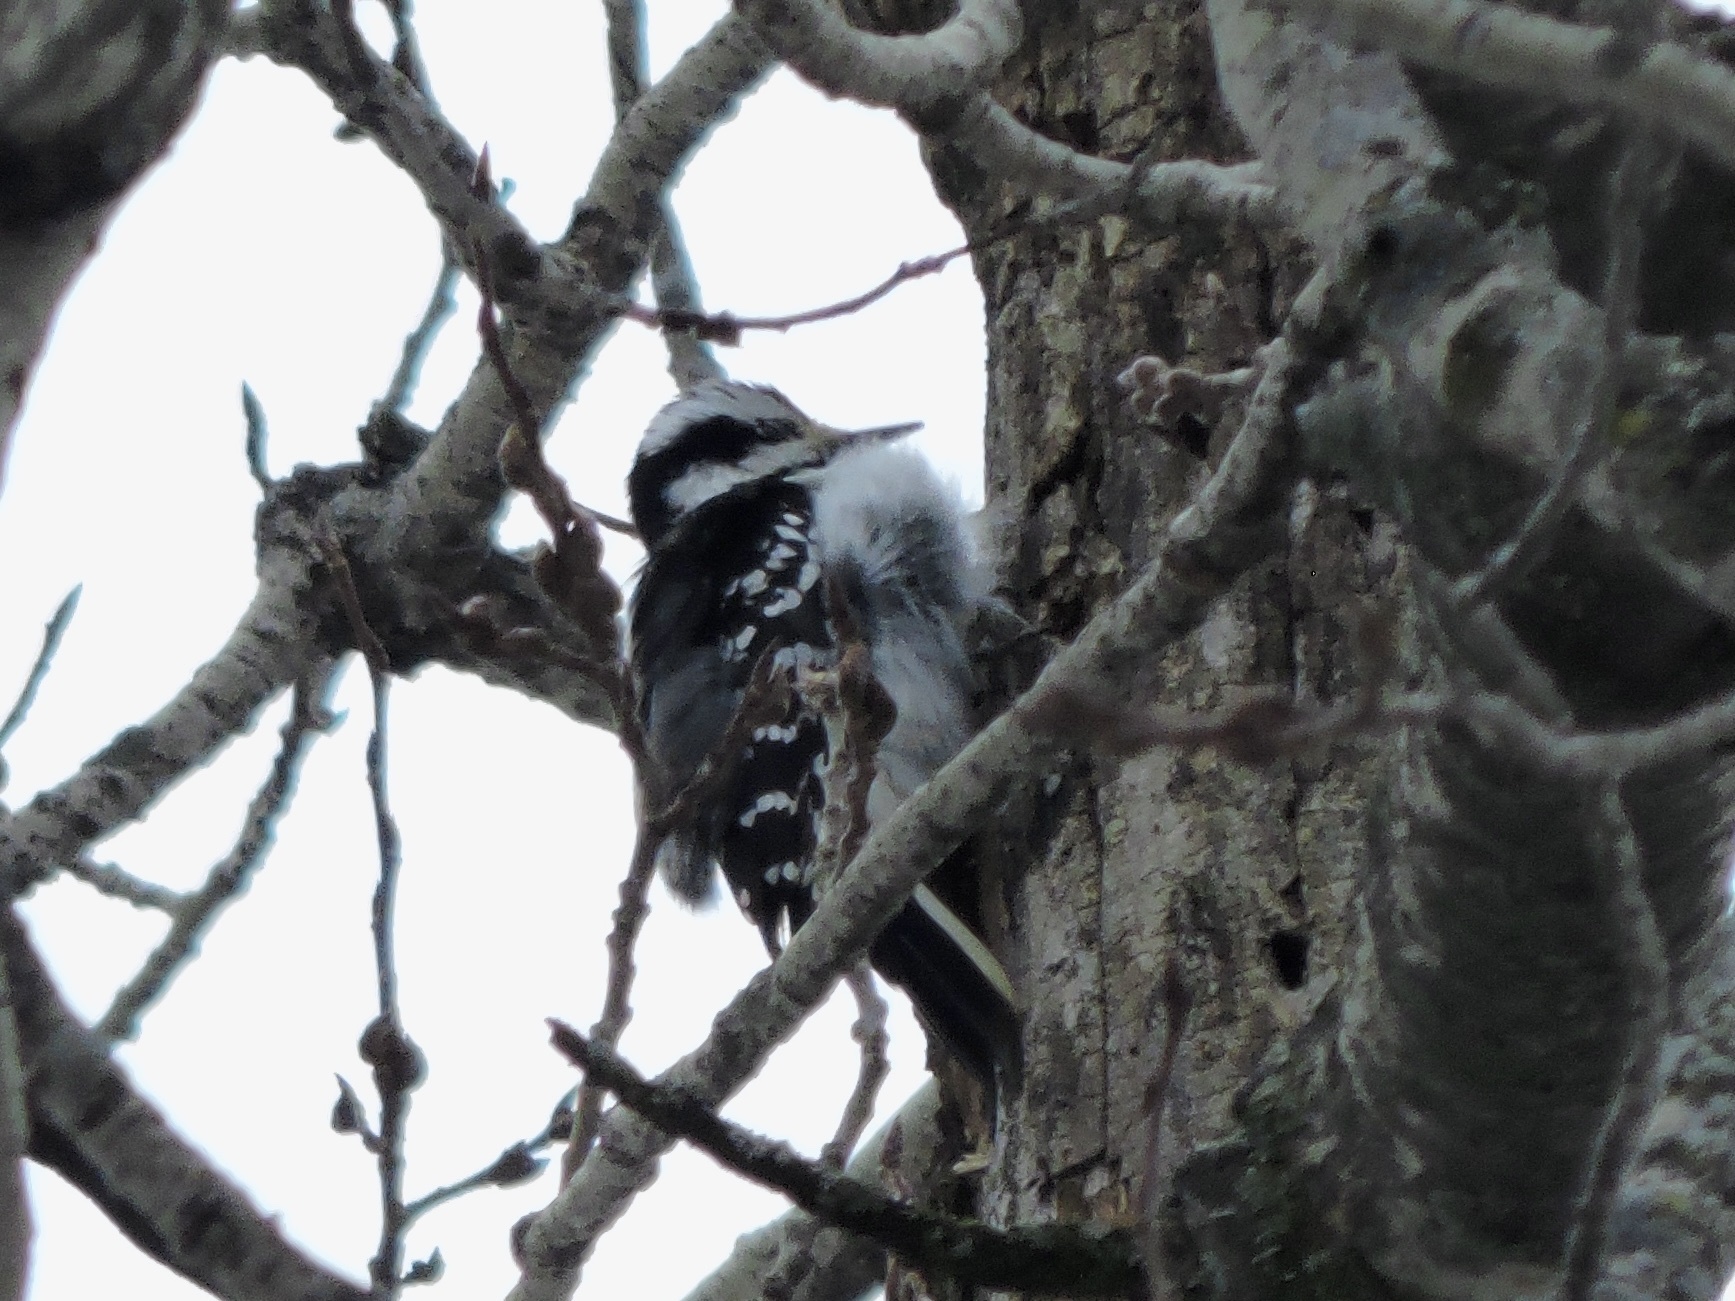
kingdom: Animalia
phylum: Chordata
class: Aves
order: Piciformes
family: Picidae
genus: Leuconotopicus
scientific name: Leuconotopicus villosus
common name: Hairy woodpecker
